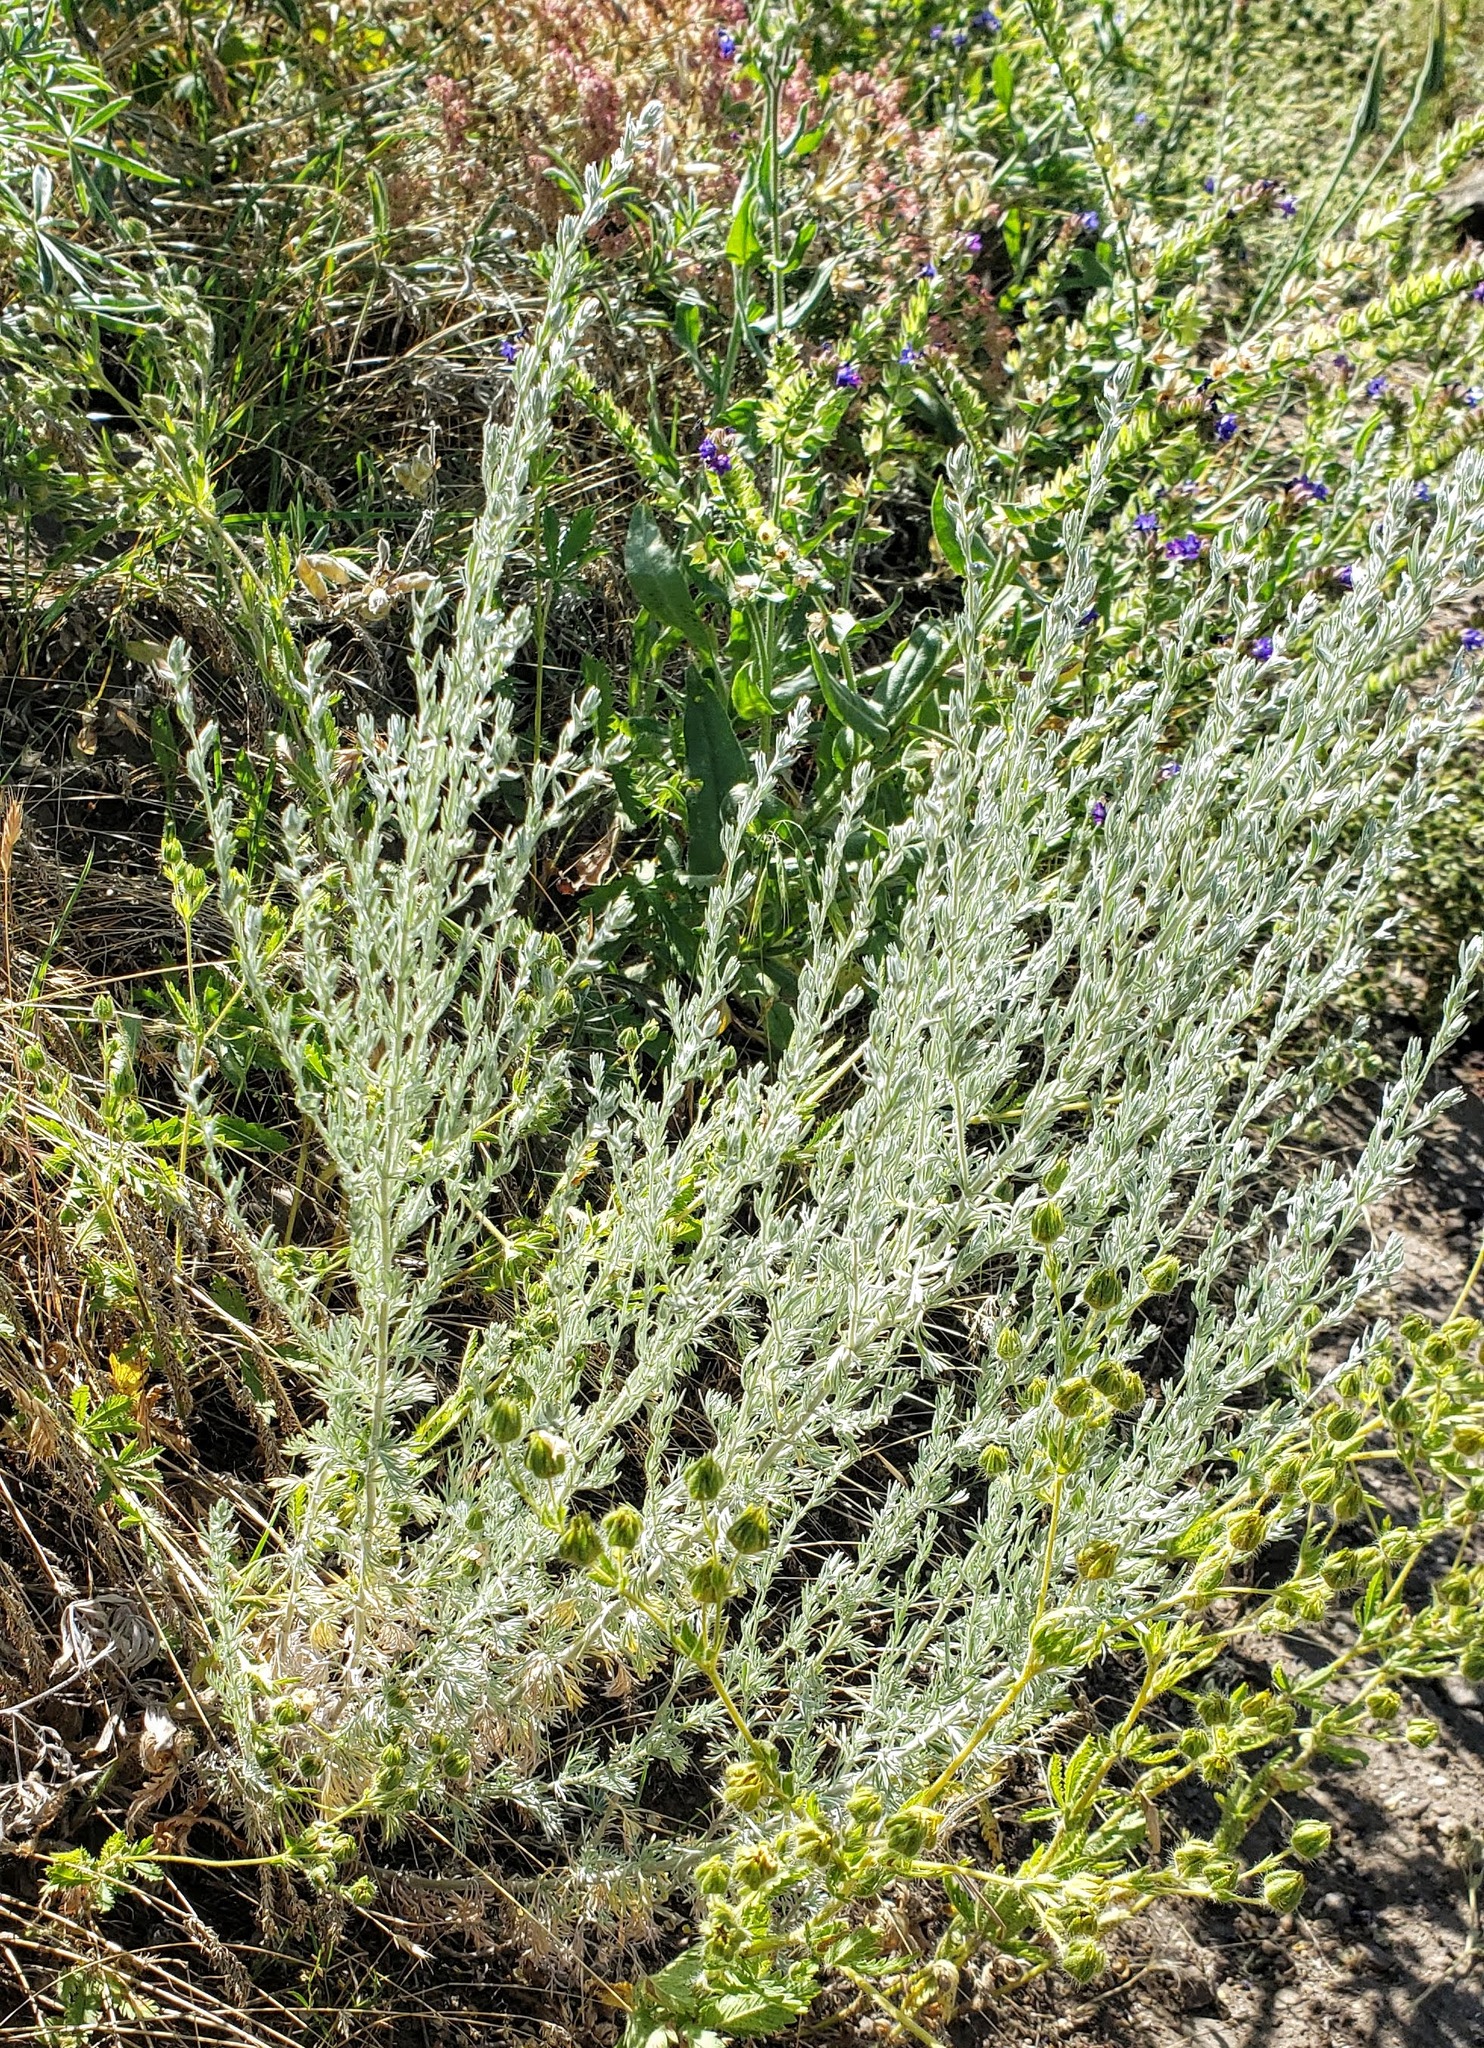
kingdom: Plantae
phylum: Tracheophyta
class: Magnoliopsida
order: Asterales
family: Asteraceae
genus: Artemisia
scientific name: Artemisia frigida
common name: Prairie sagewort
